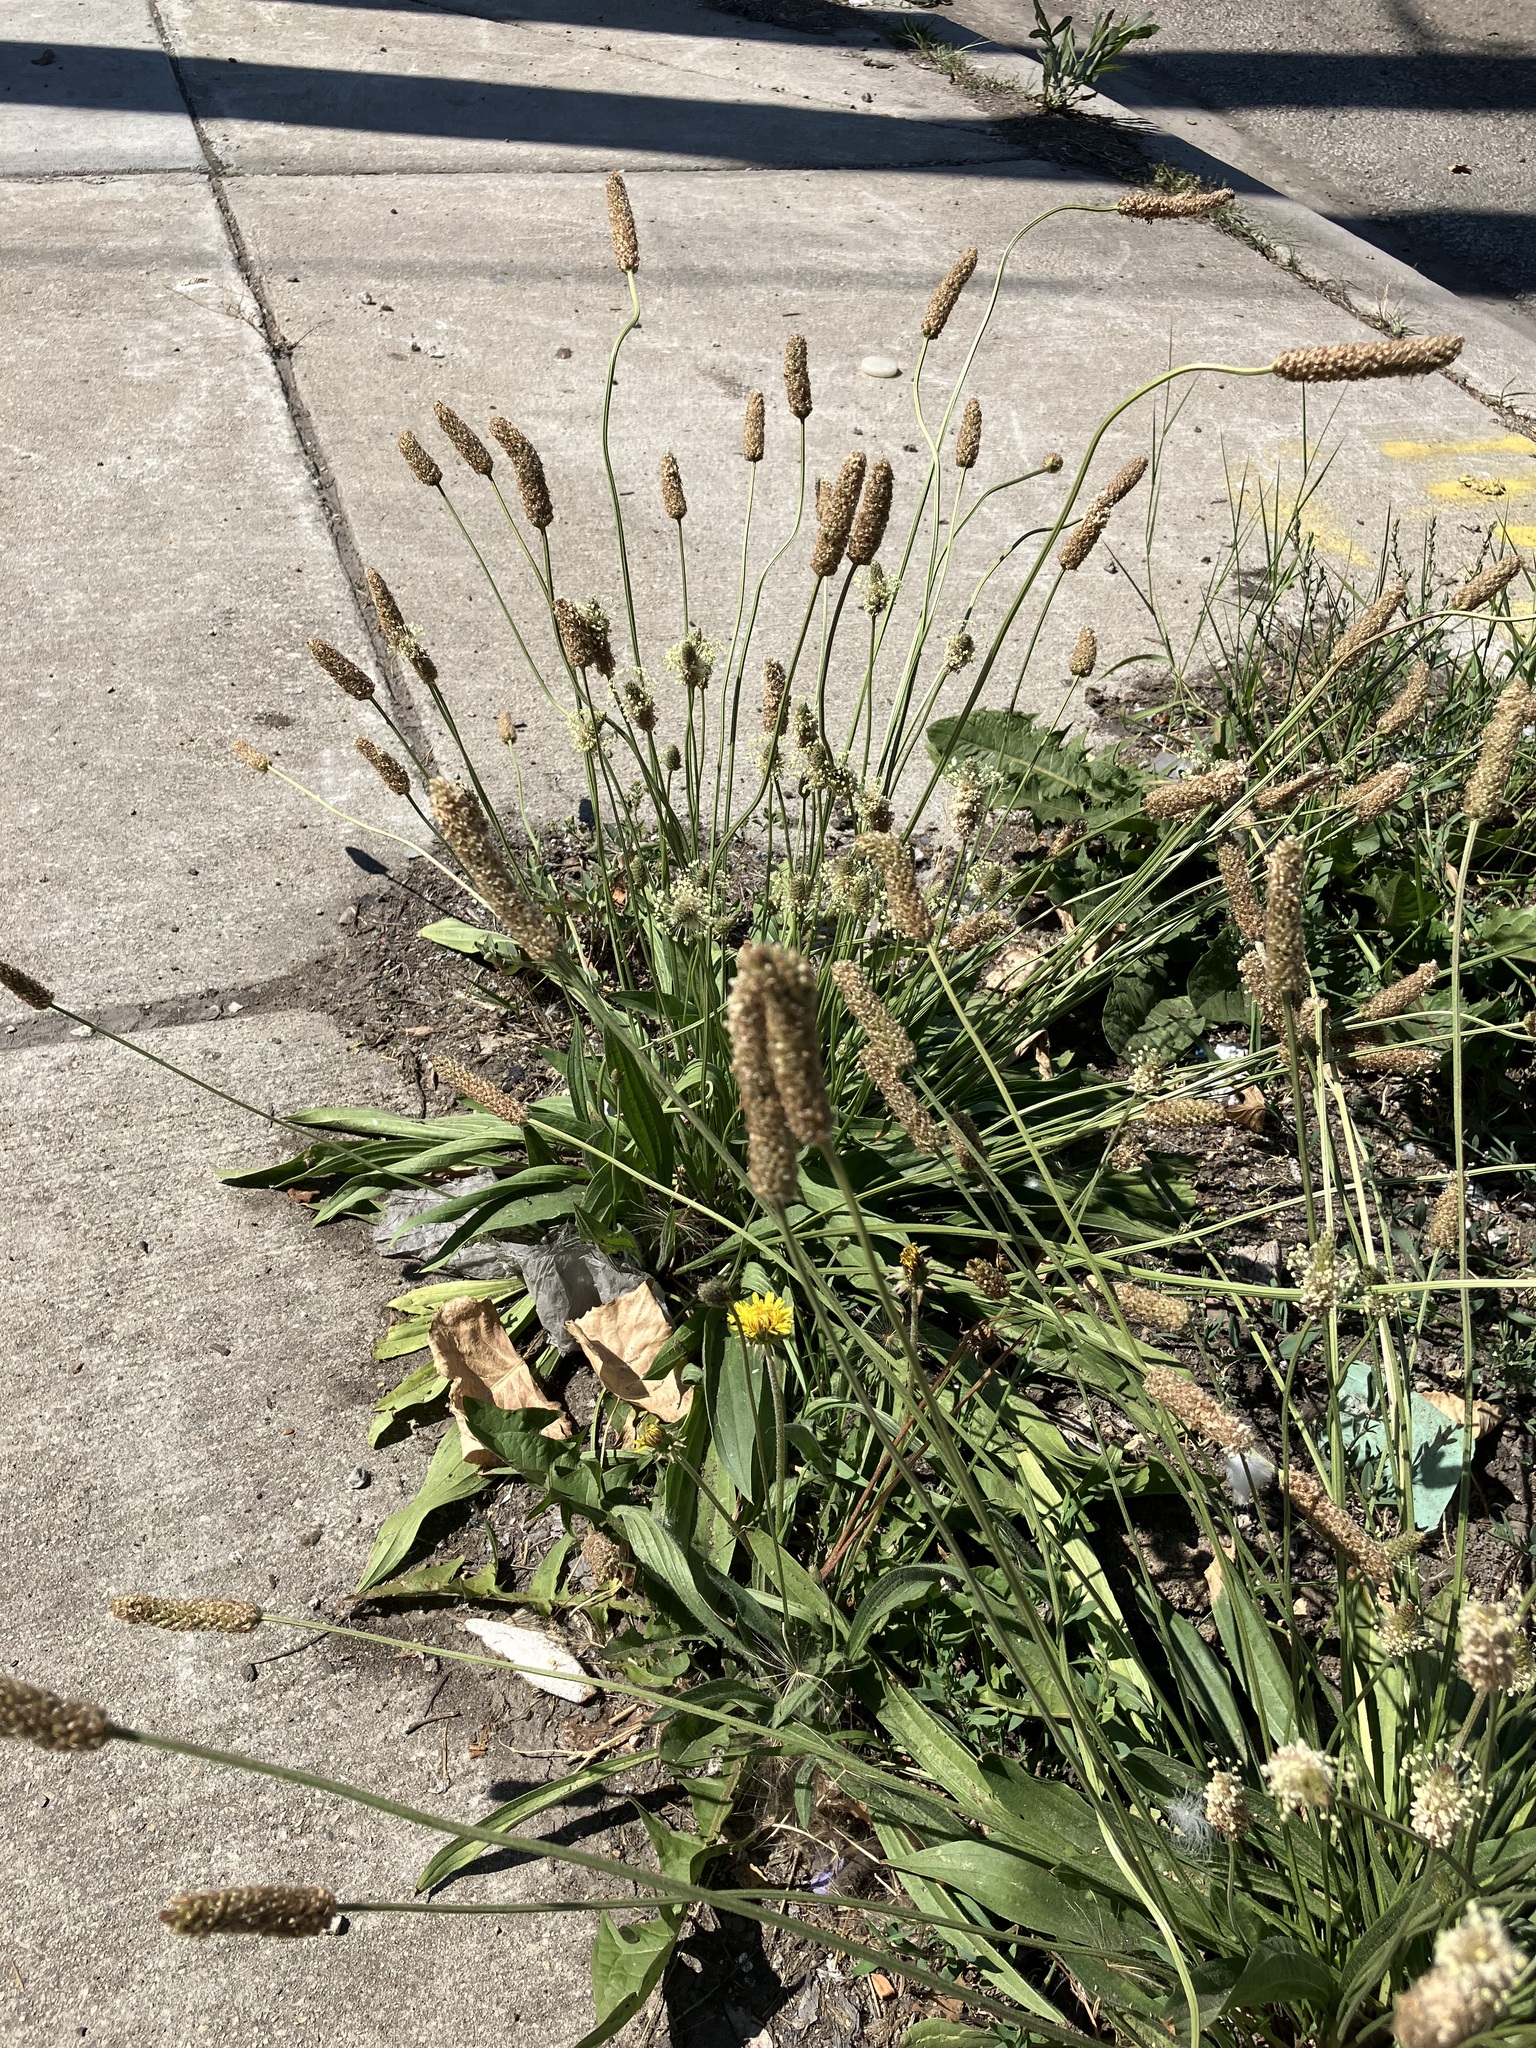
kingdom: Plantae
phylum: Tracheophyta
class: Magnoliopsida
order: Lamiales
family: Plantaginaceae
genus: Plantago
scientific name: Plantago lanceolata
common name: Ribwort plantain
